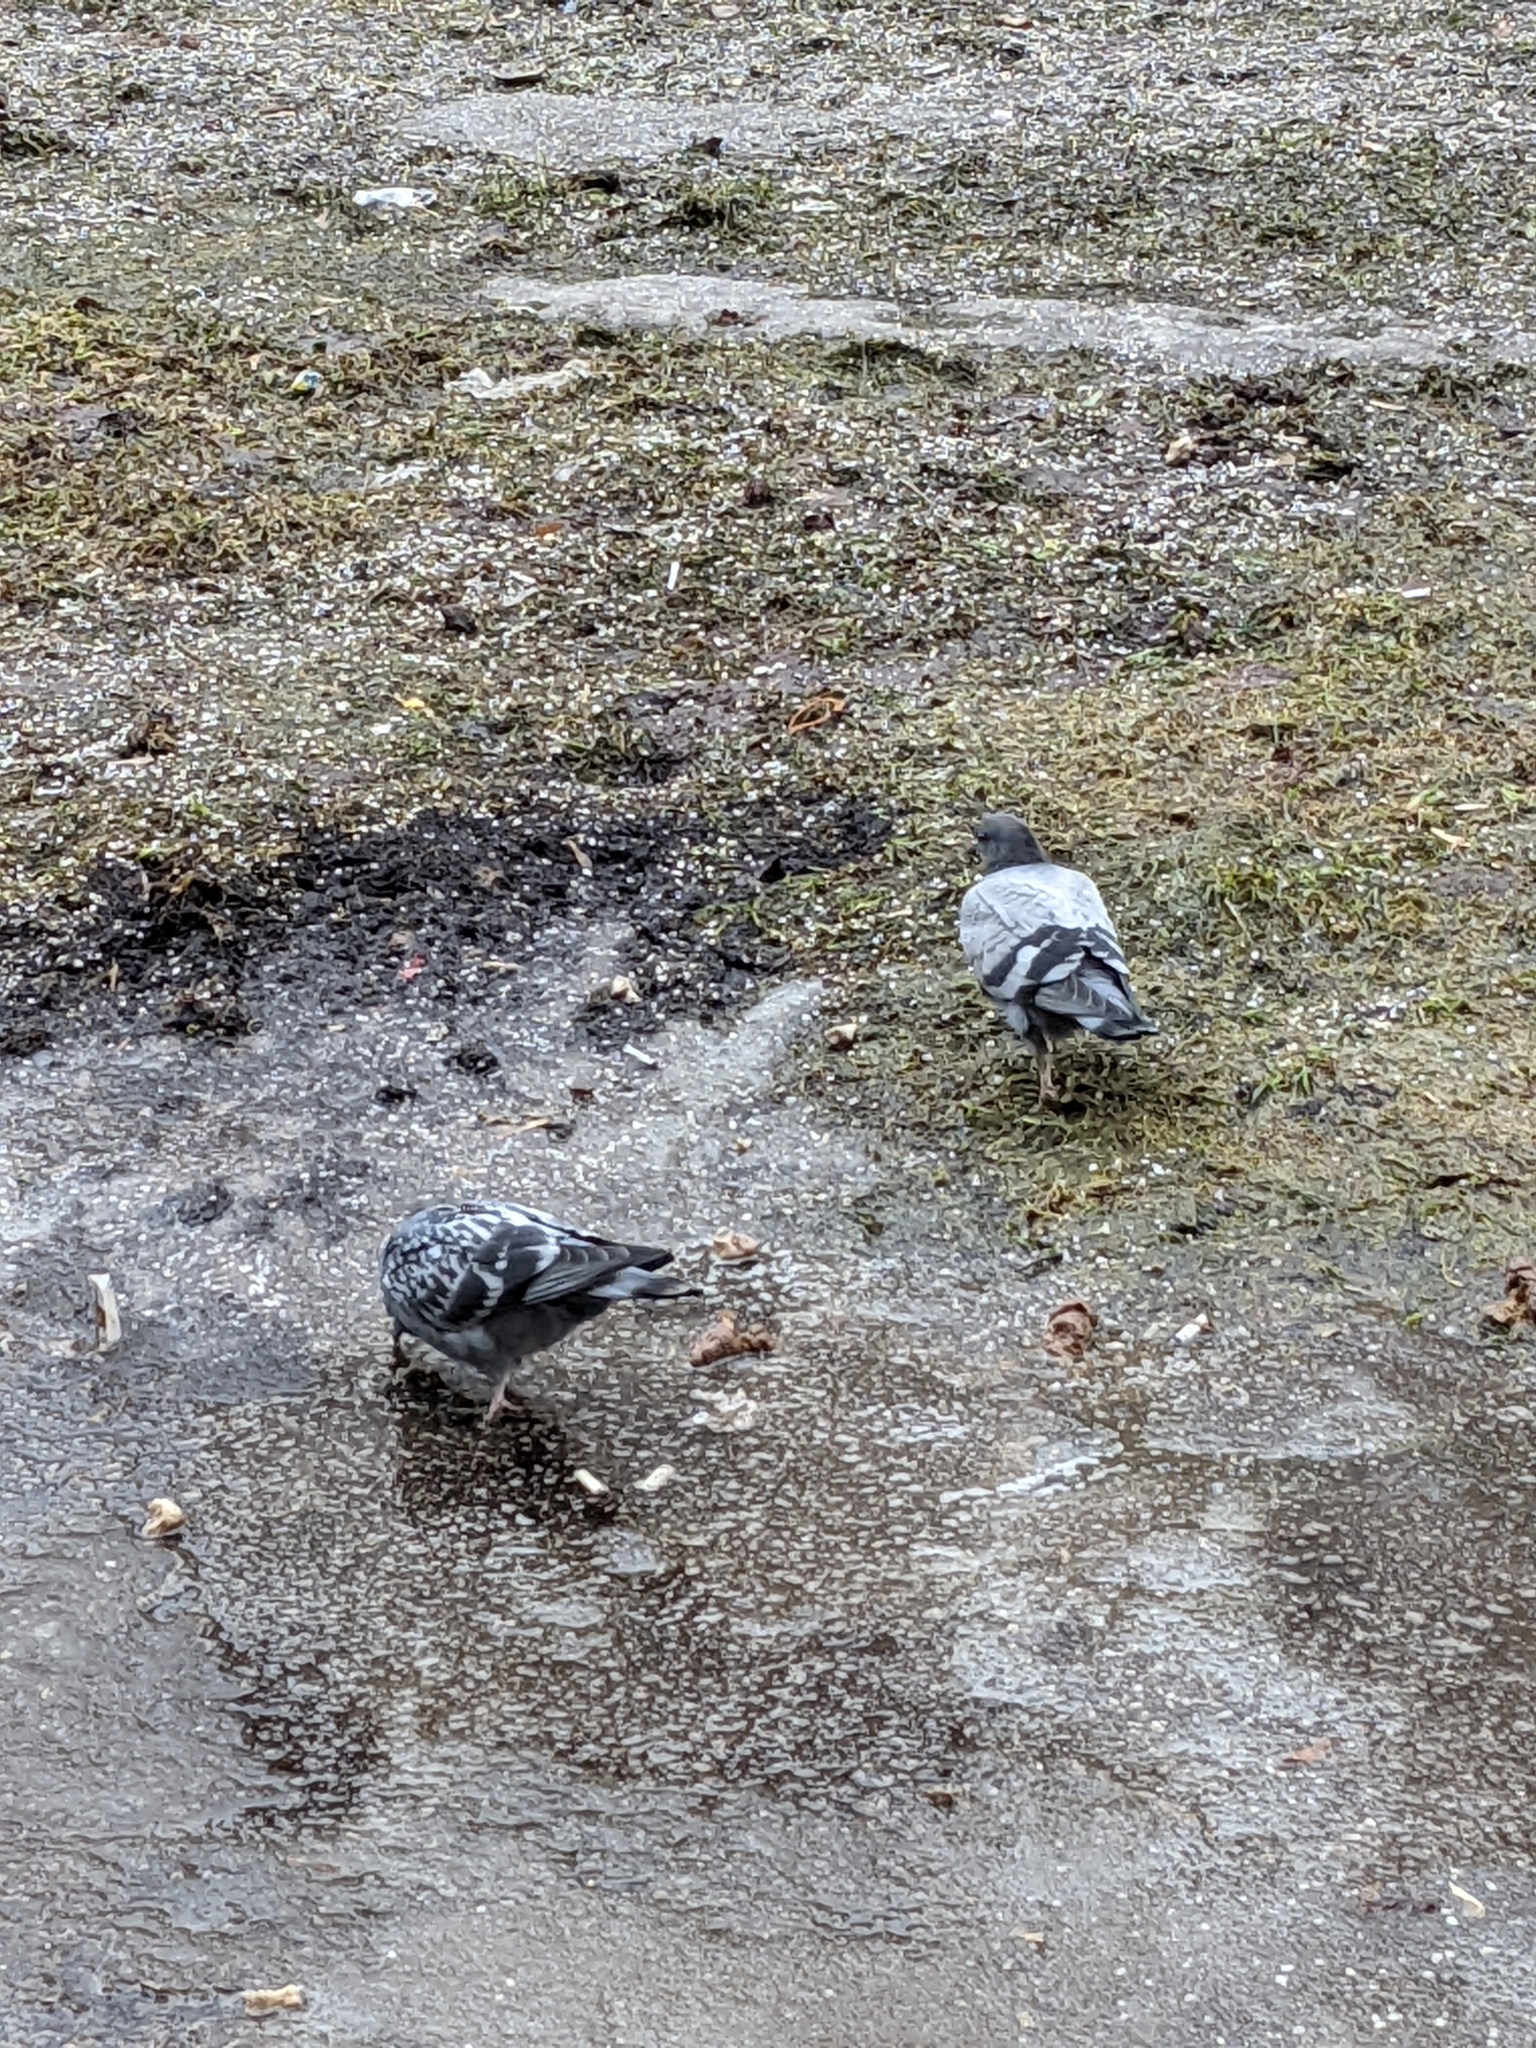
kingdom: Animalia
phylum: Chordata
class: Aves
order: Columbiformes
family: Columbidae
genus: Columba
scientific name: Columba livia
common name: Rock pigeon
